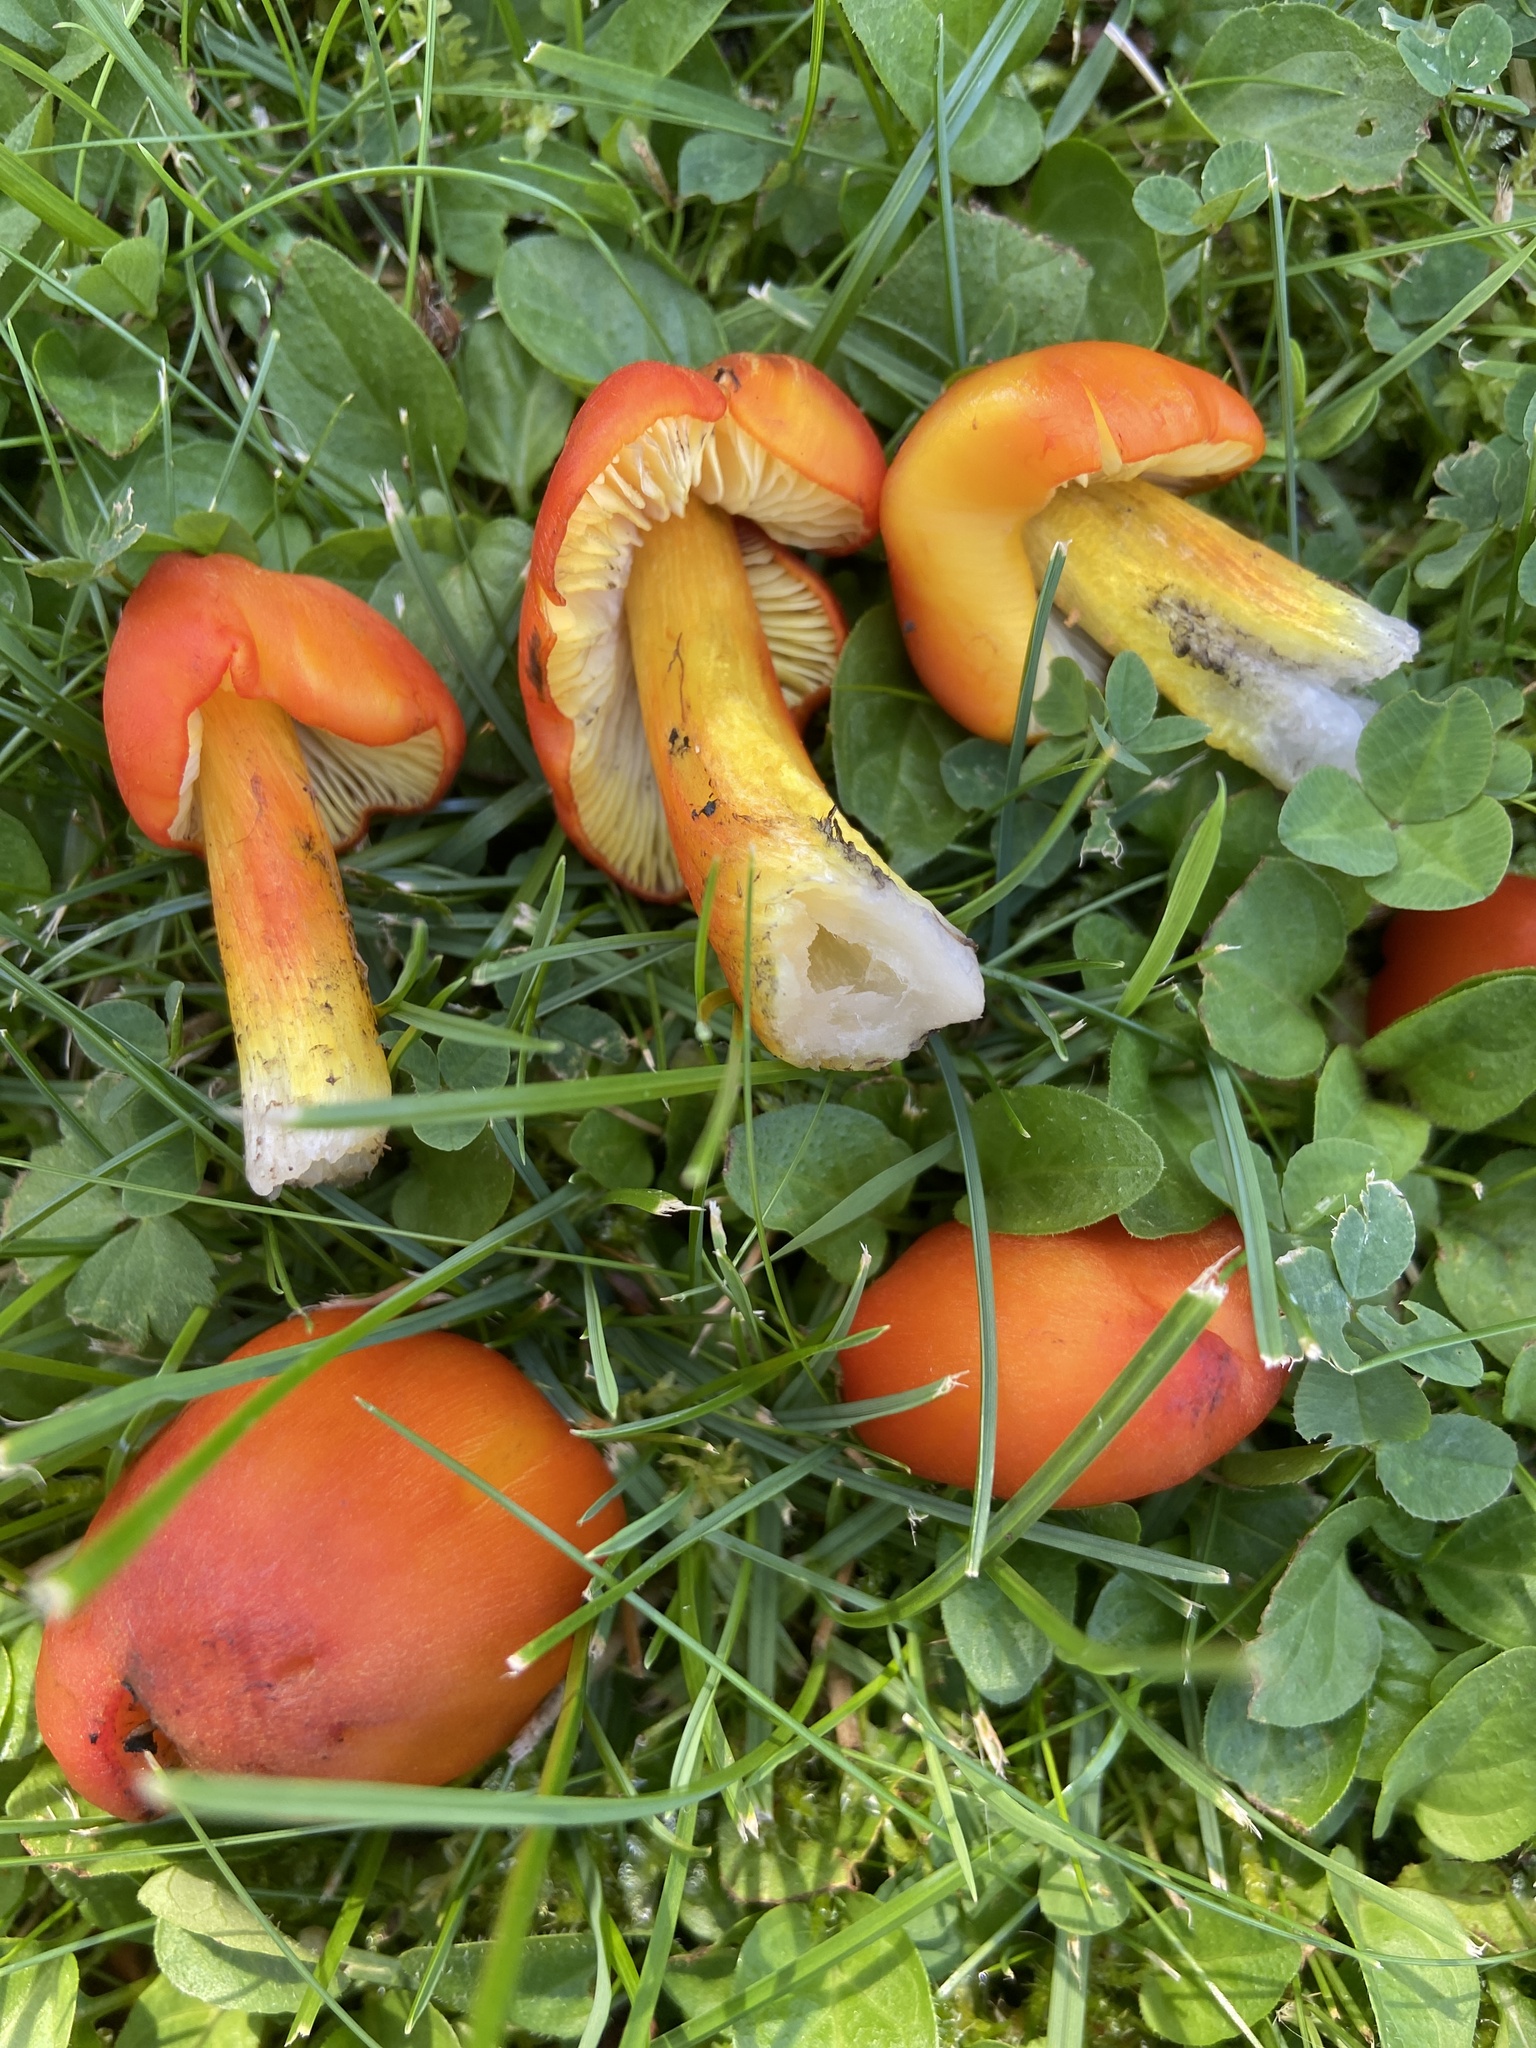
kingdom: Fungi
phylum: Basidiomycota
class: Agaricomycetes
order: Agaricales
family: Hygrophoraceae
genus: Hygrocybe
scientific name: Hygrocybe conica
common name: Blackening wax-cap
